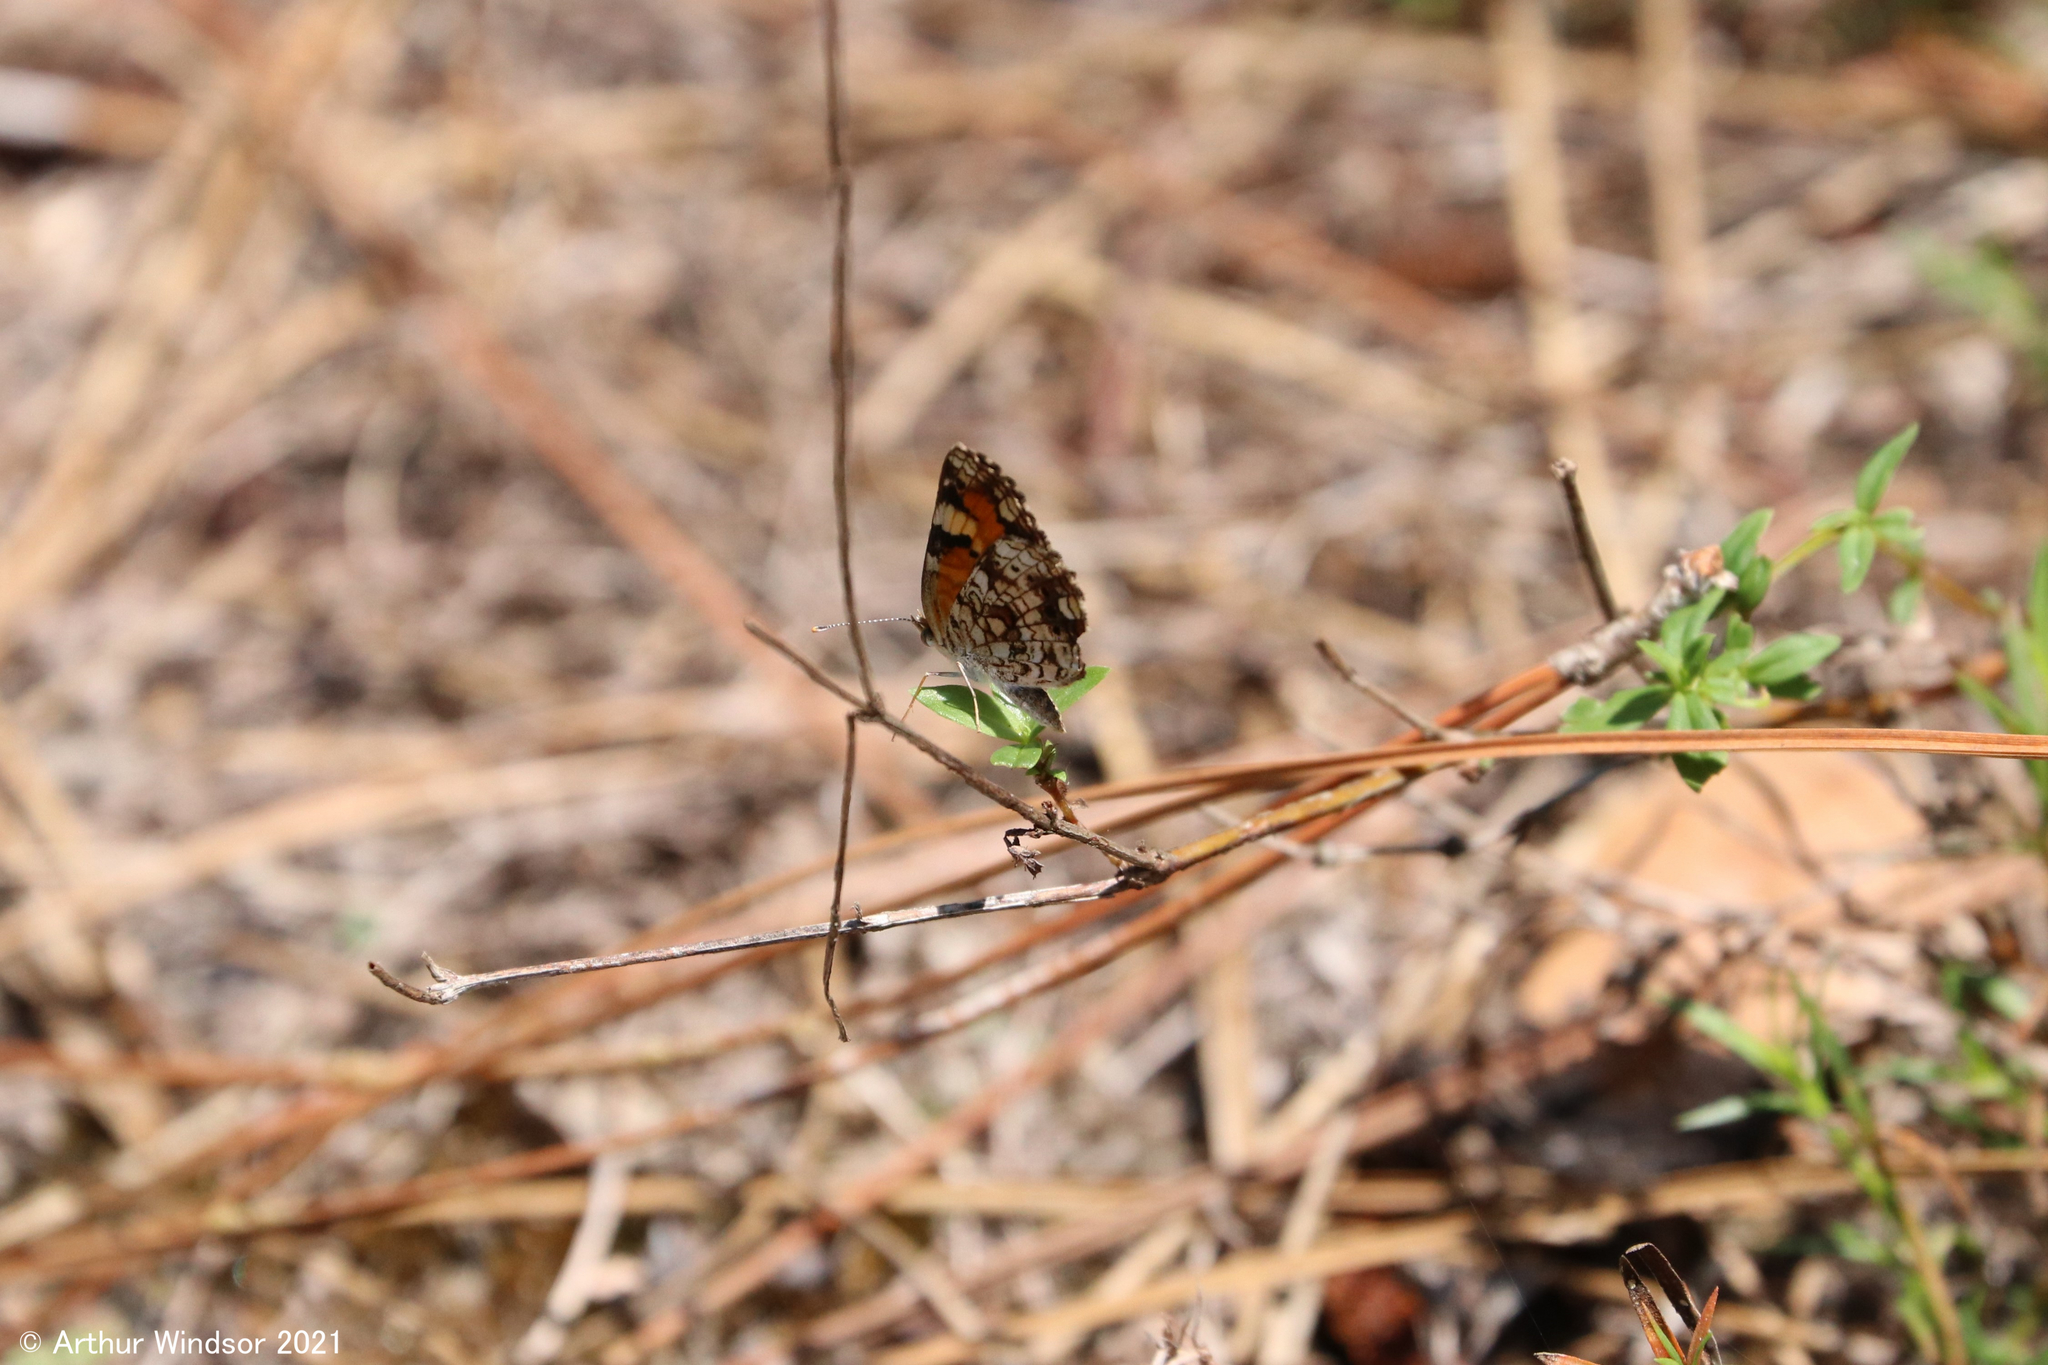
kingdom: Animalia
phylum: Arthropoda
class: Insecta
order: Lepidoptera
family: Nymphalidae
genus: Phyciodes
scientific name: Phyciodes phaon
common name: Phaon crescent
